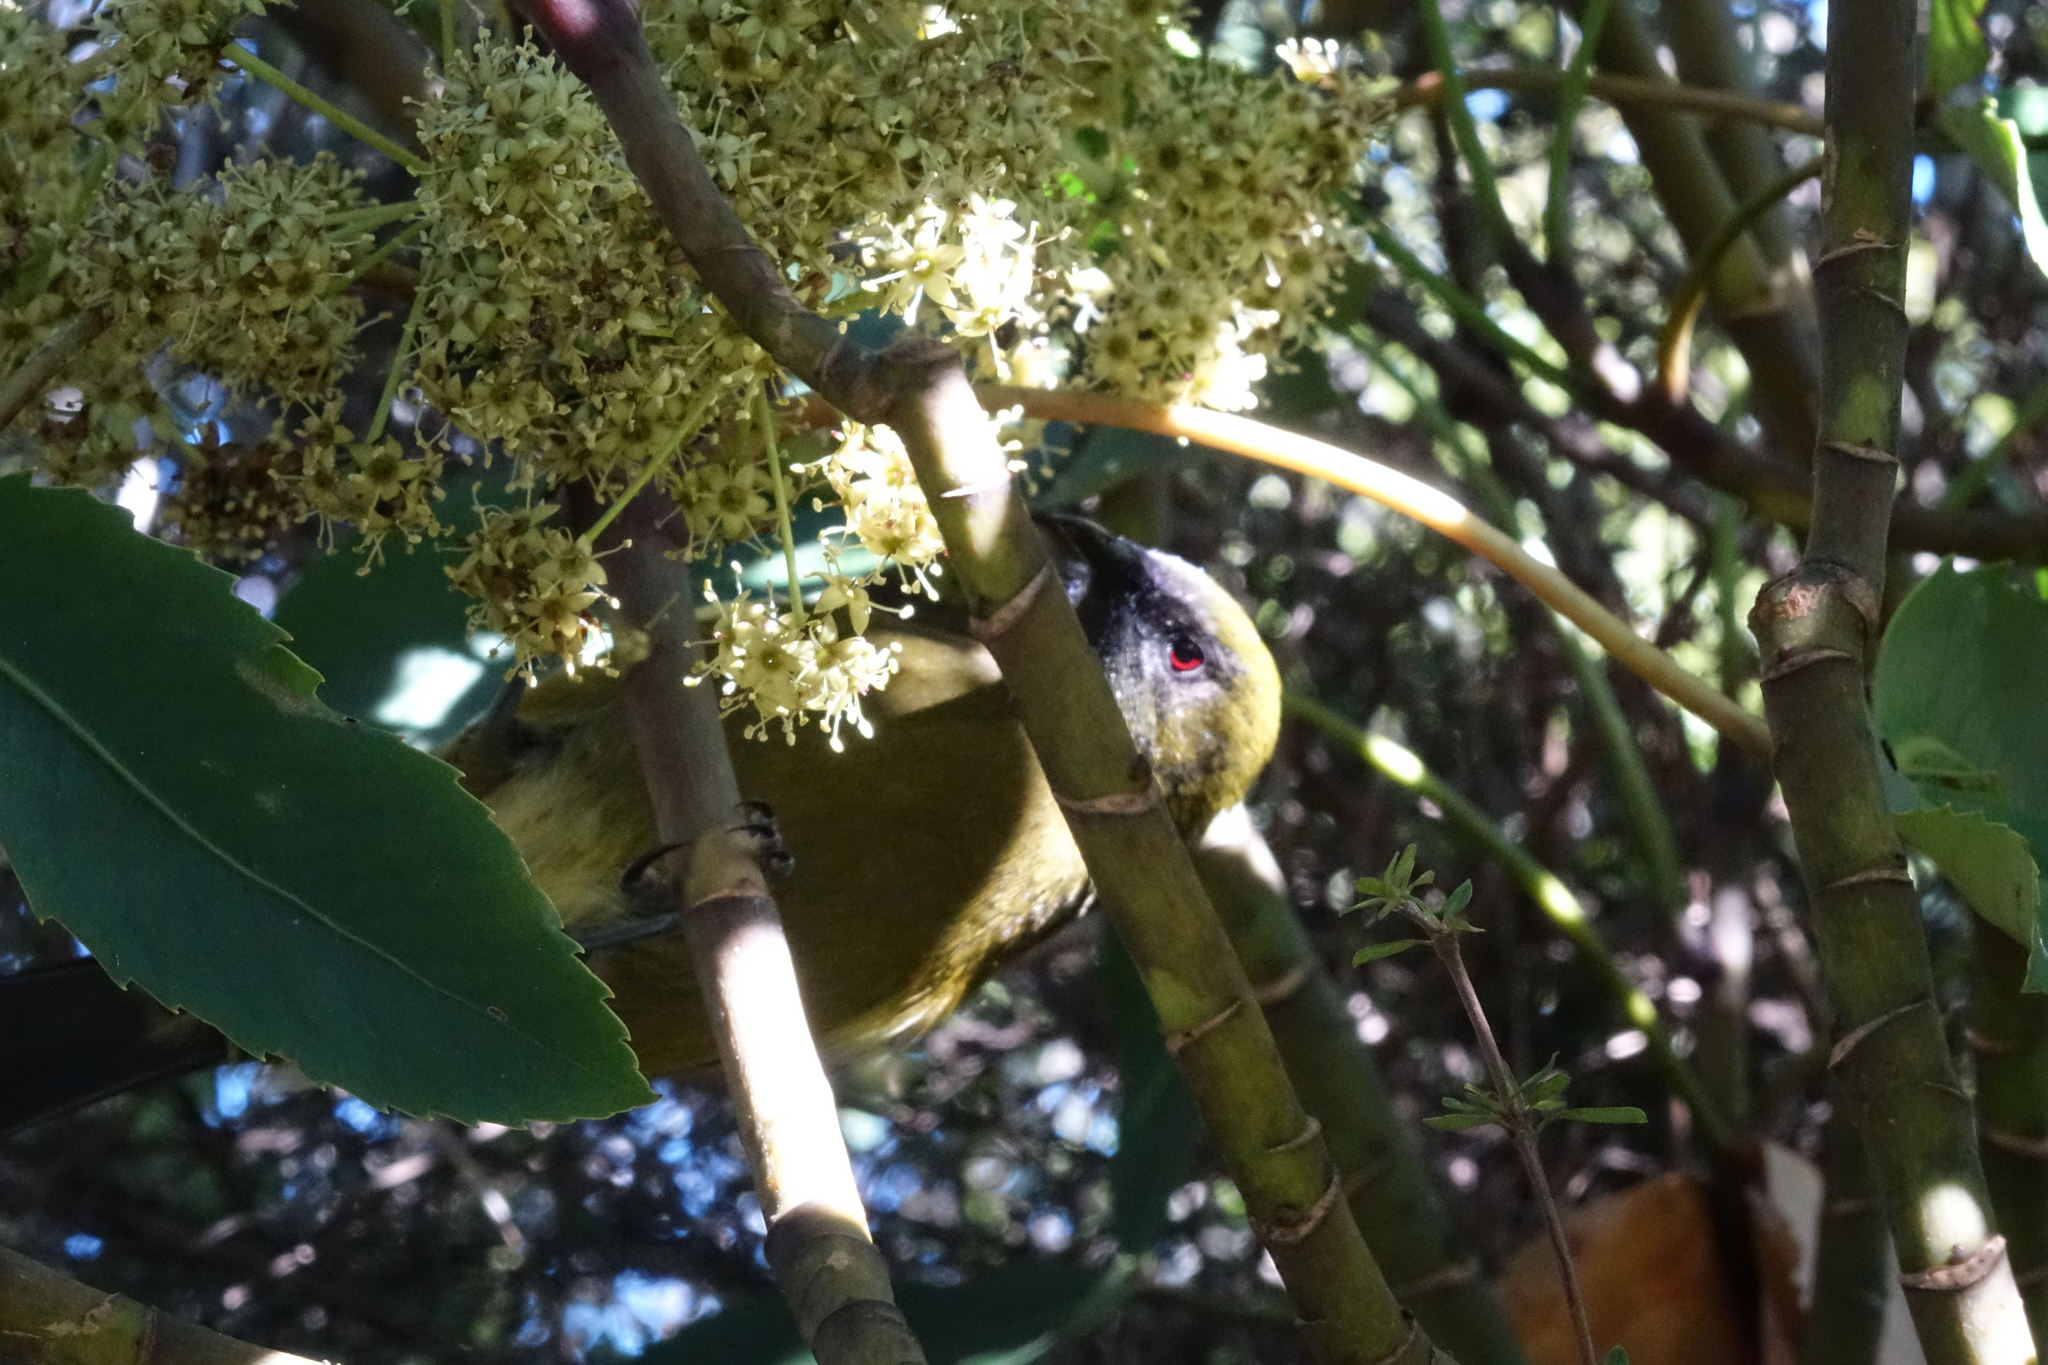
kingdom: Animalia
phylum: Chordata
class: Aves
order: Passeriformes
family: Meliphagidae
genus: Anthornis
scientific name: Anthornis melanura
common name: New zealand bellbird
